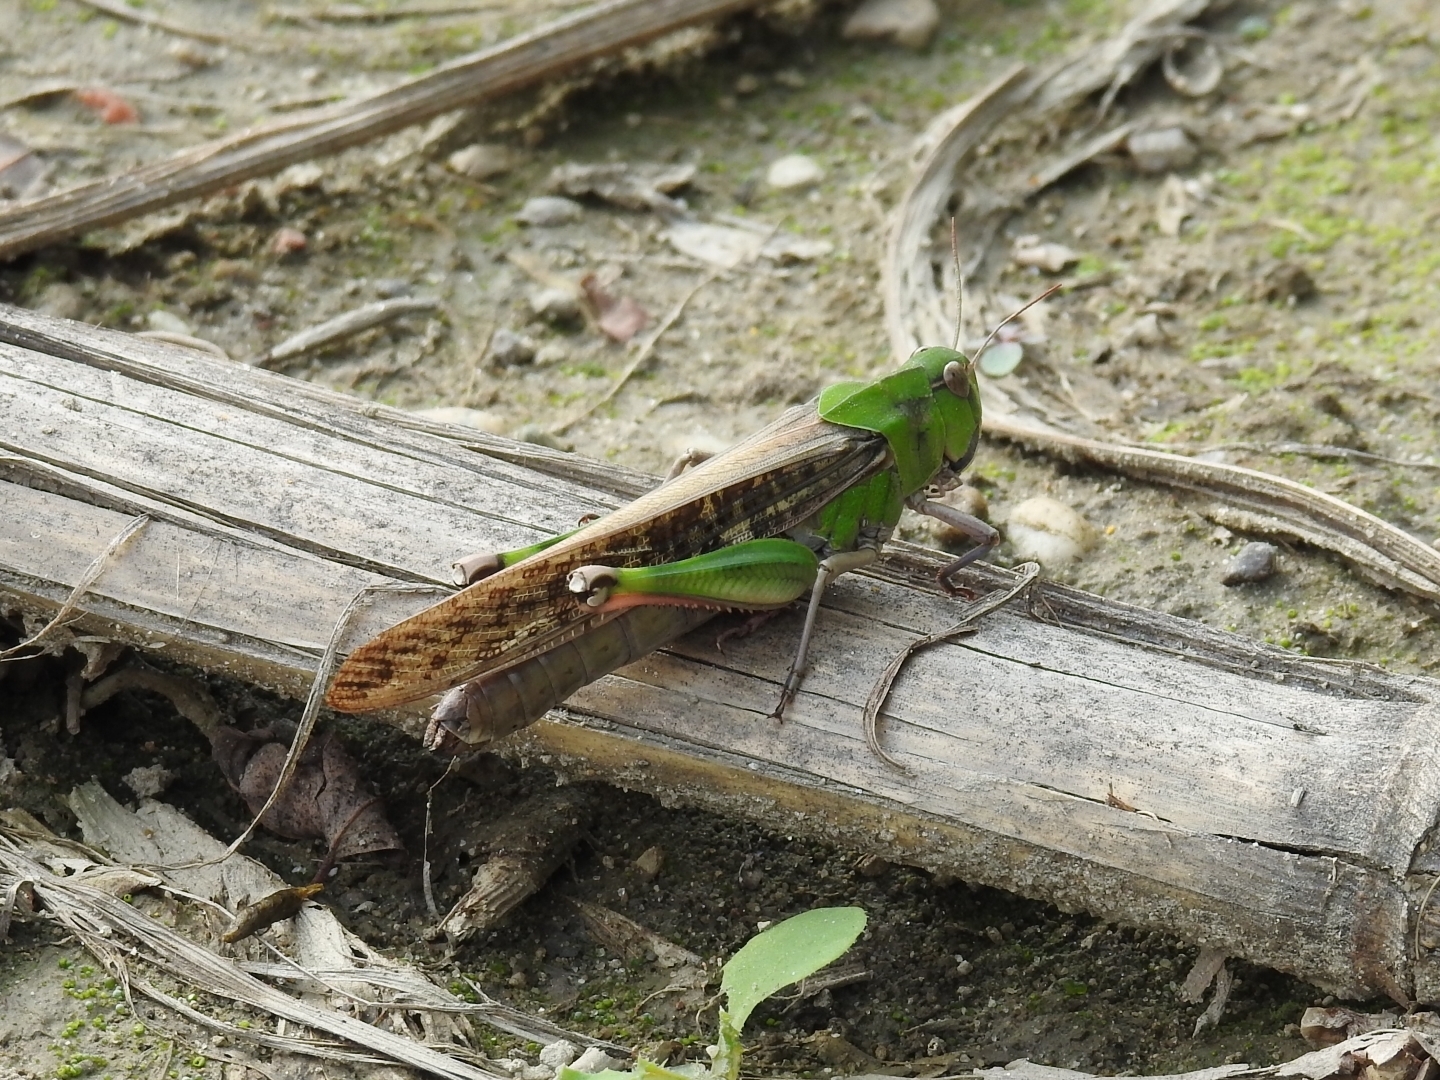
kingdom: Animalia
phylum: Arthropoda
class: Insecta
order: Orthoptera
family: Acrididae
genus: Locusta
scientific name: Locusta migratoria
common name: Migratory locust
